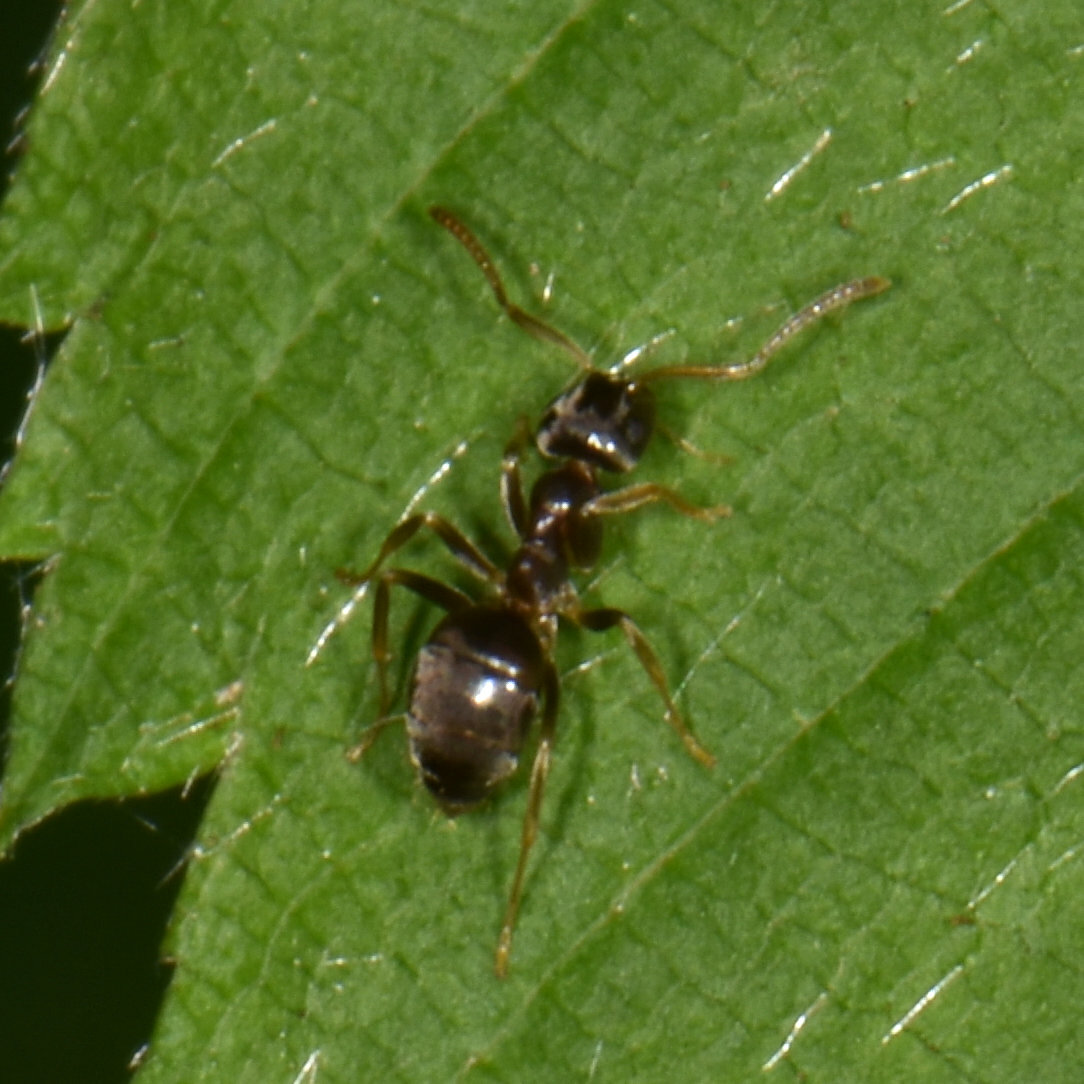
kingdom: Animalia
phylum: Arthropoda
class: Insecta
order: Hymenoptera
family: Formicidae
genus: Lasius
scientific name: Lasius americanus
